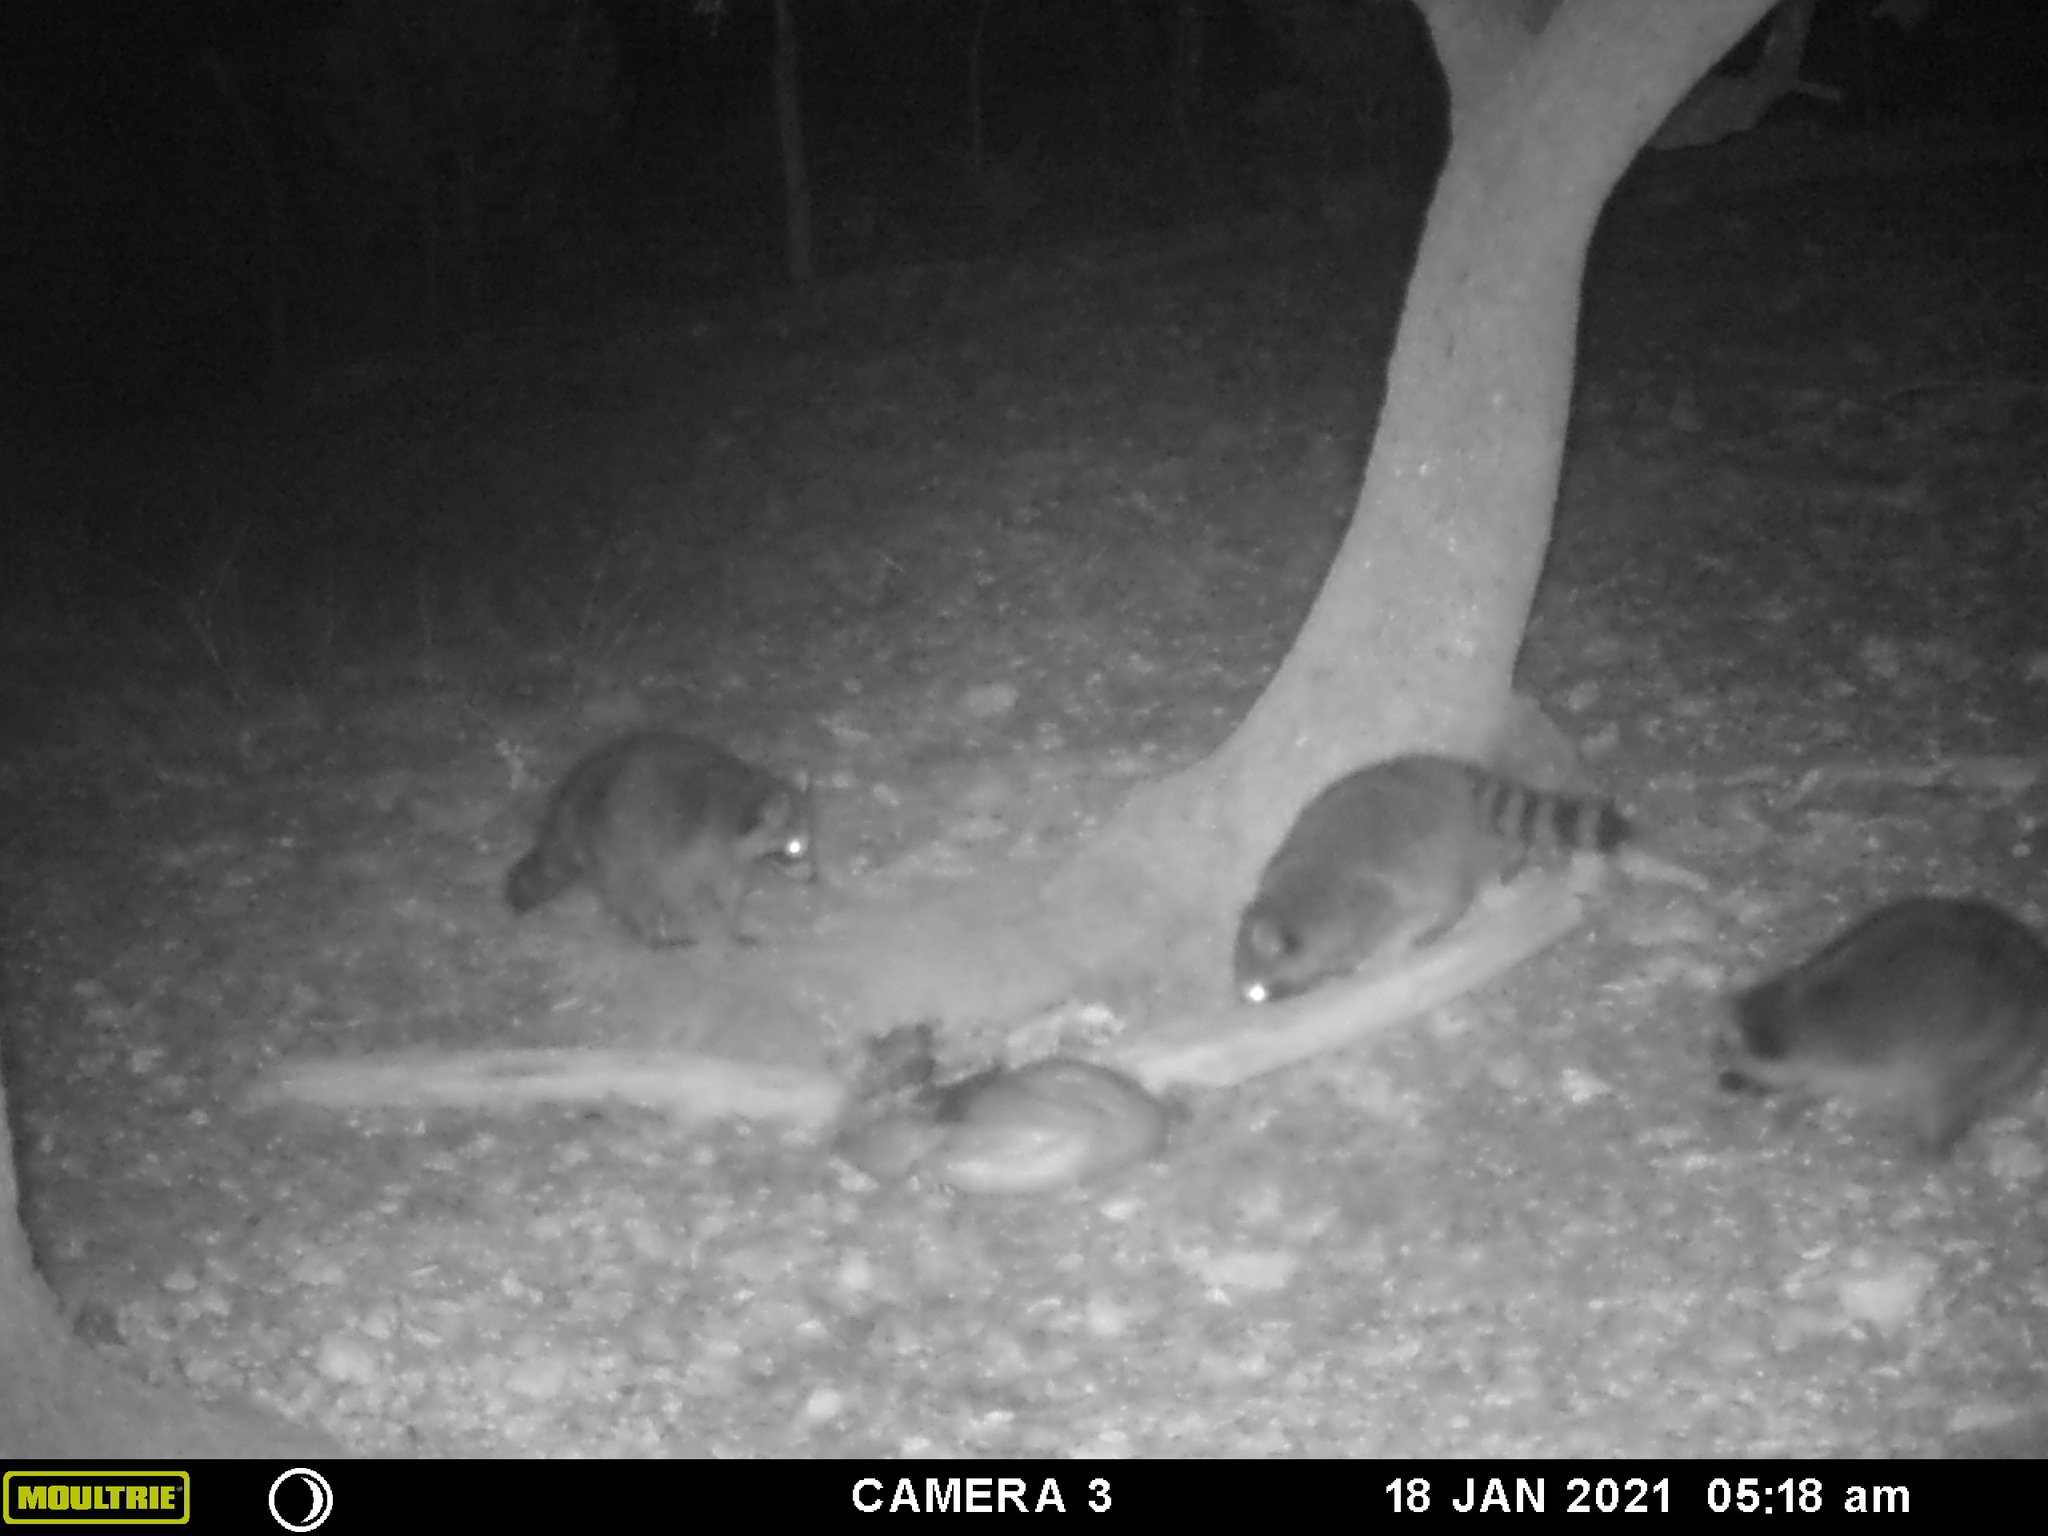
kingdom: Animalia
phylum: Chordata
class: Mammalia
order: Carnivora
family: Procyonidae
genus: Procyon
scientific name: Procyon lotor
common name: Raccoon
